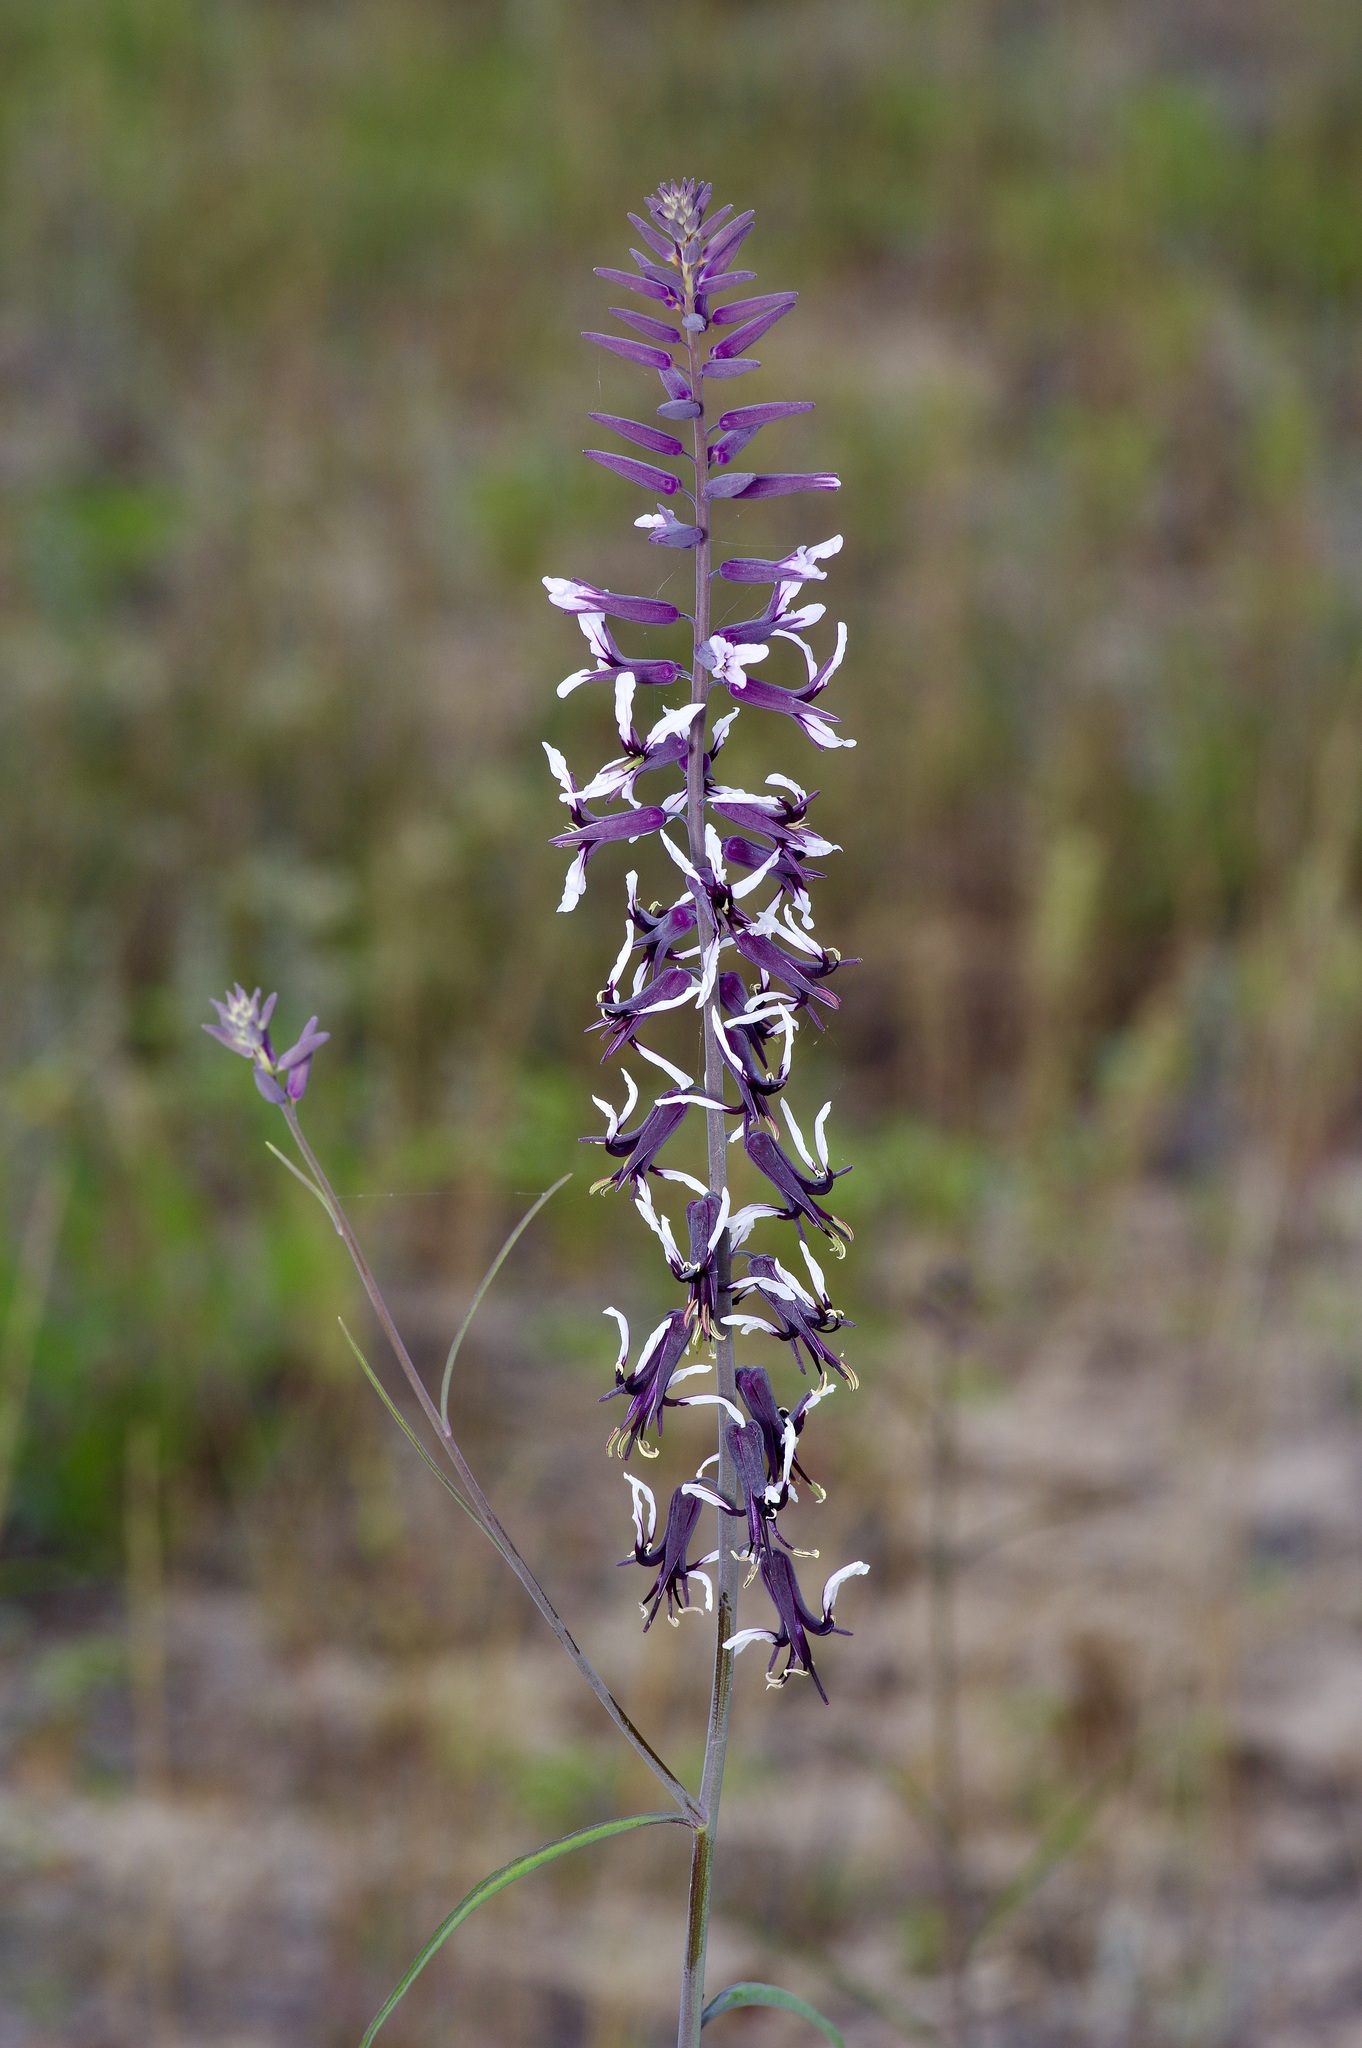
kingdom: Plantae
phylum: Tracheophyta
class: Magnoliopsida
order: Brassicales
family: Brassicaceae
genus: Streptanthus
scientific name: Streptanthus hyacinthoides
